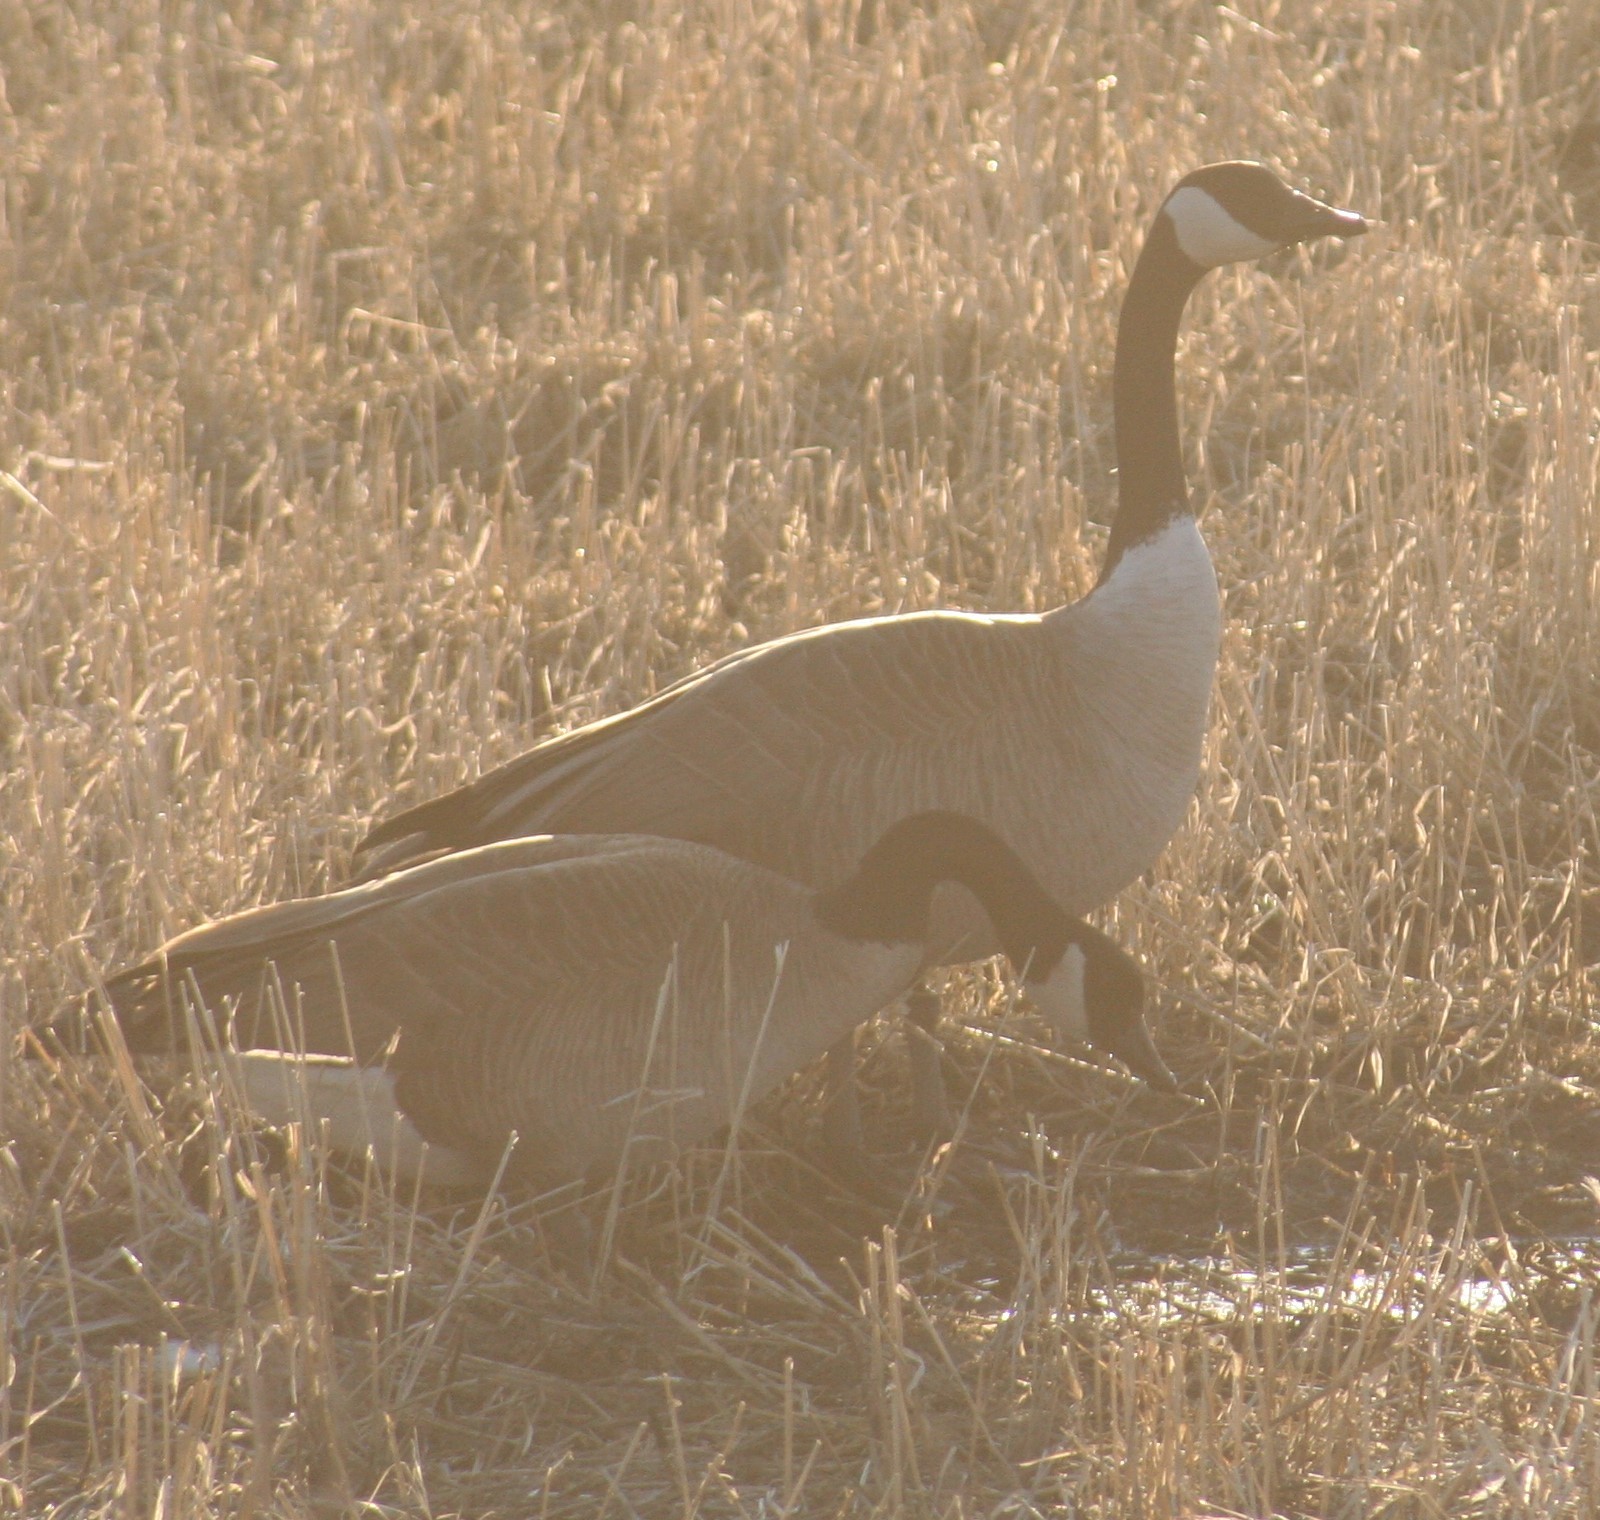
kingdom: Animalia
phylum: Chordata
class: Aves
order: Anseriformes
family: Anatidae
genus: Branta
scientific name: Branta canadensis
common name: Canada goose
